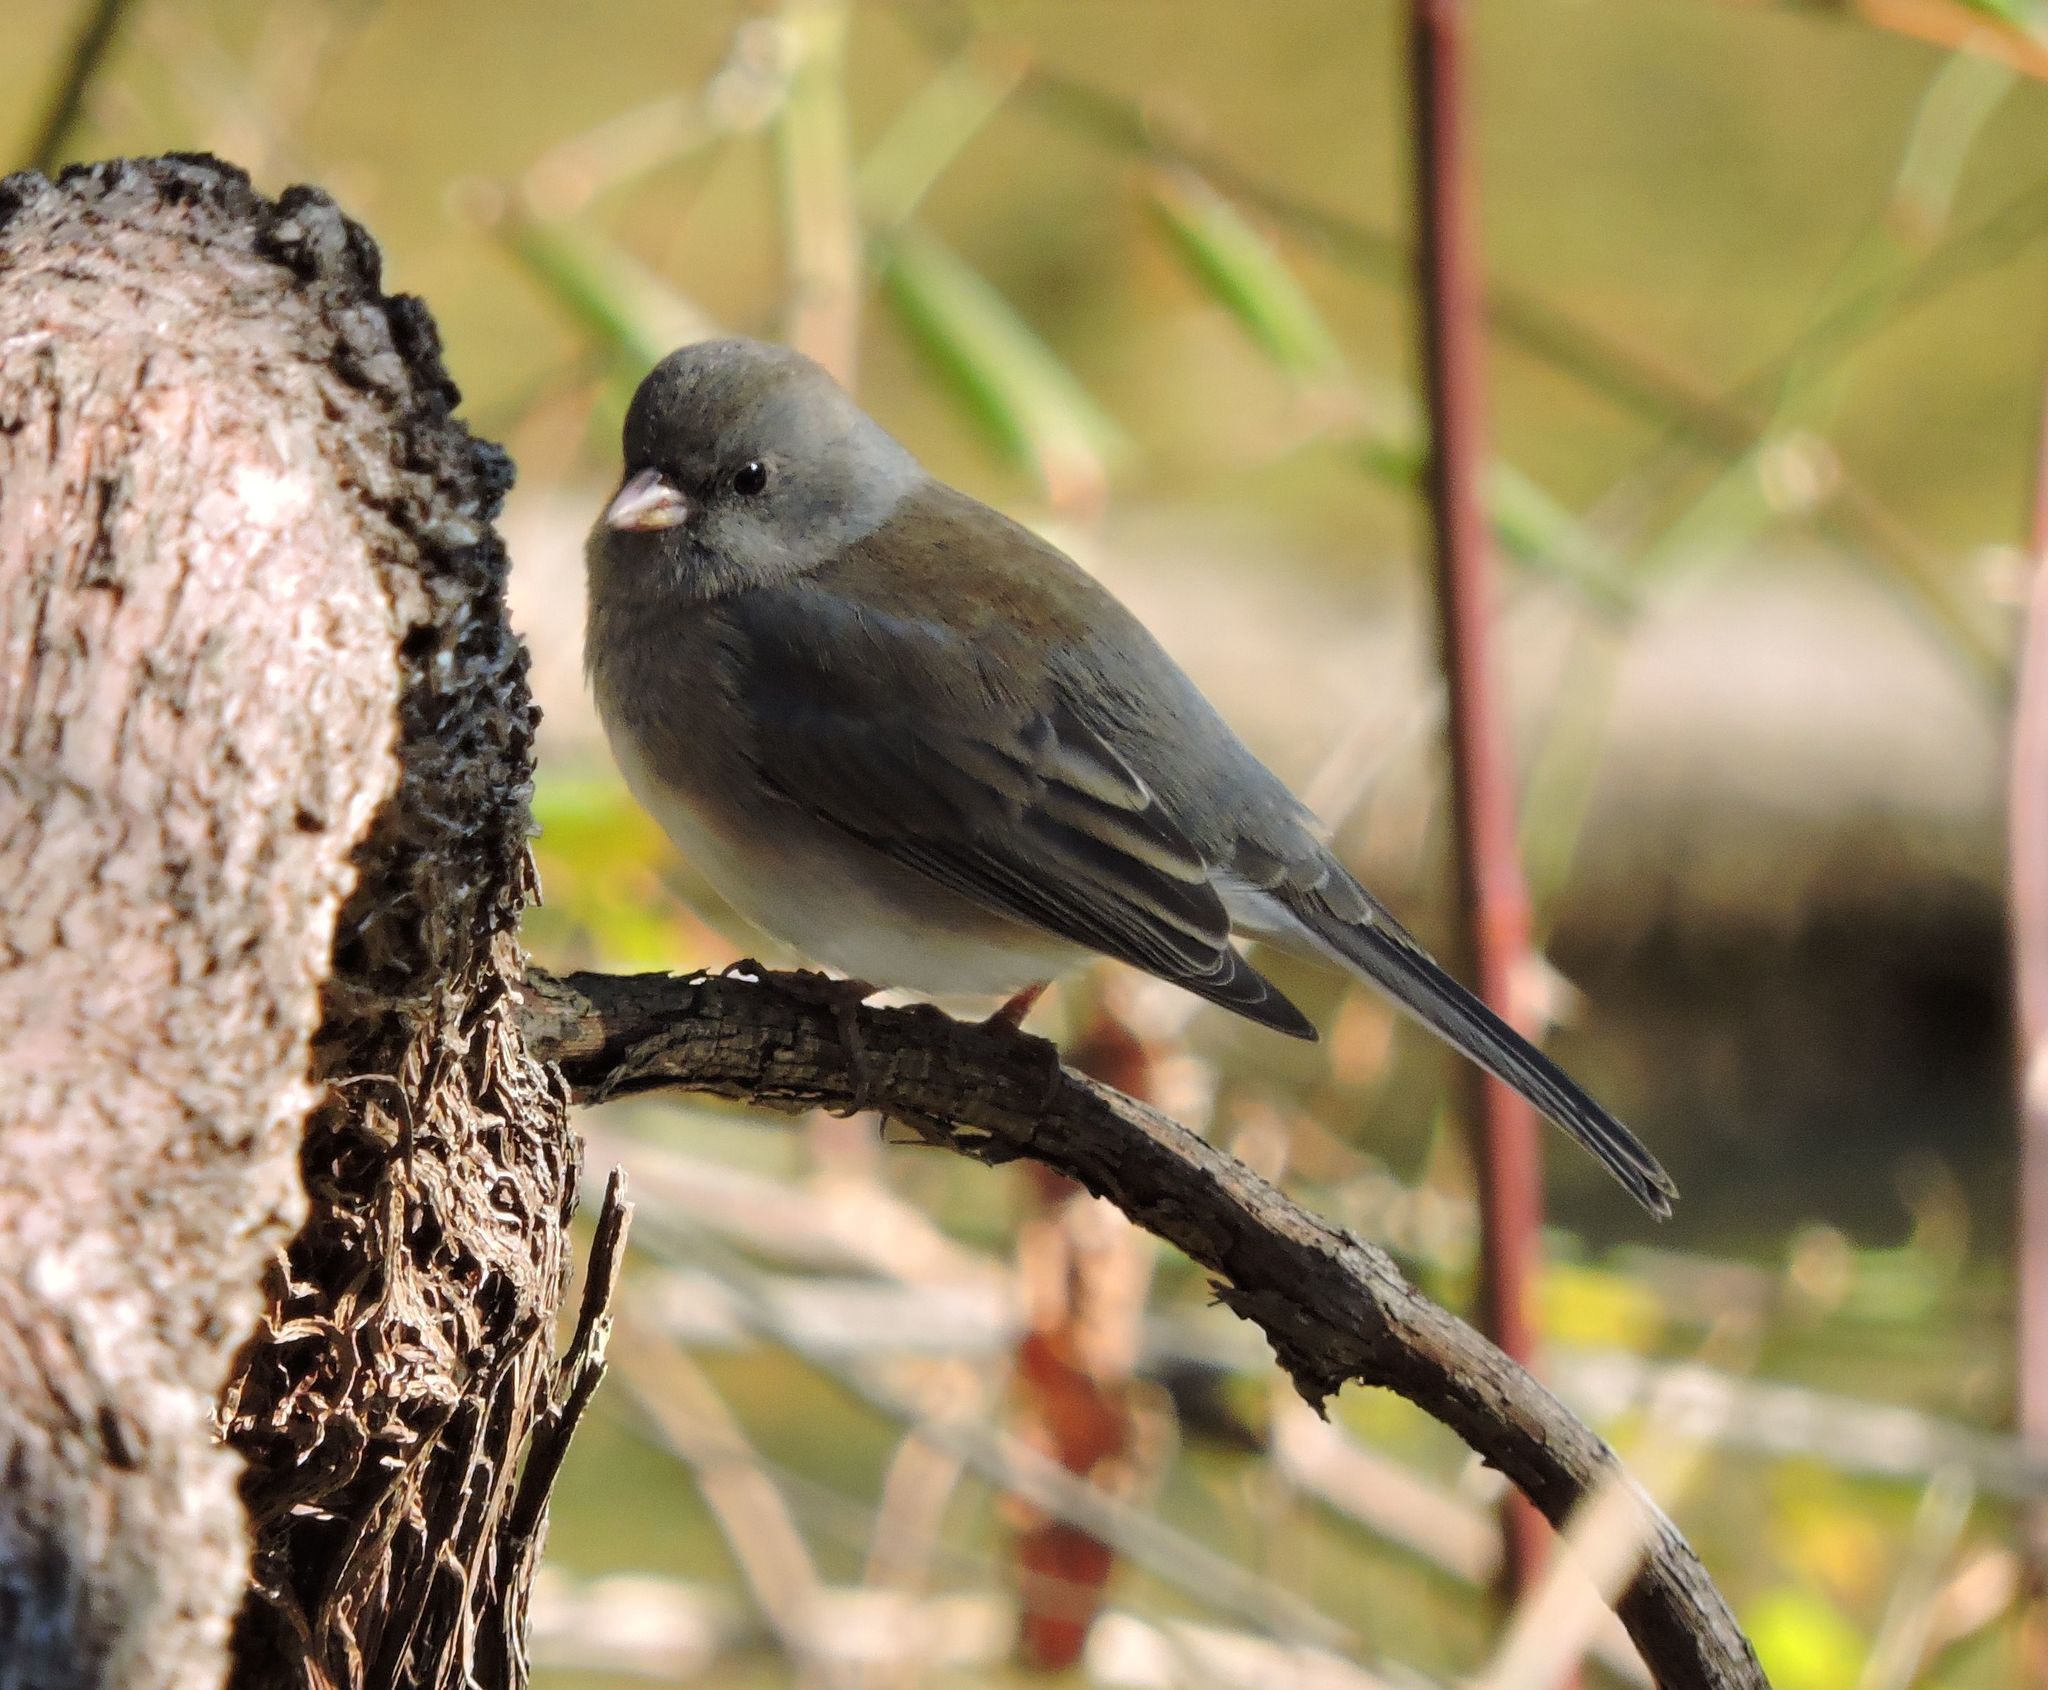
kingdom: Animalia
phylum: Chordata
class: Aves
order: Passeriformes
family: Passerellidae
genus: Junco
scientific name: Junco hyemalis
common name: Dark-eyed junco
